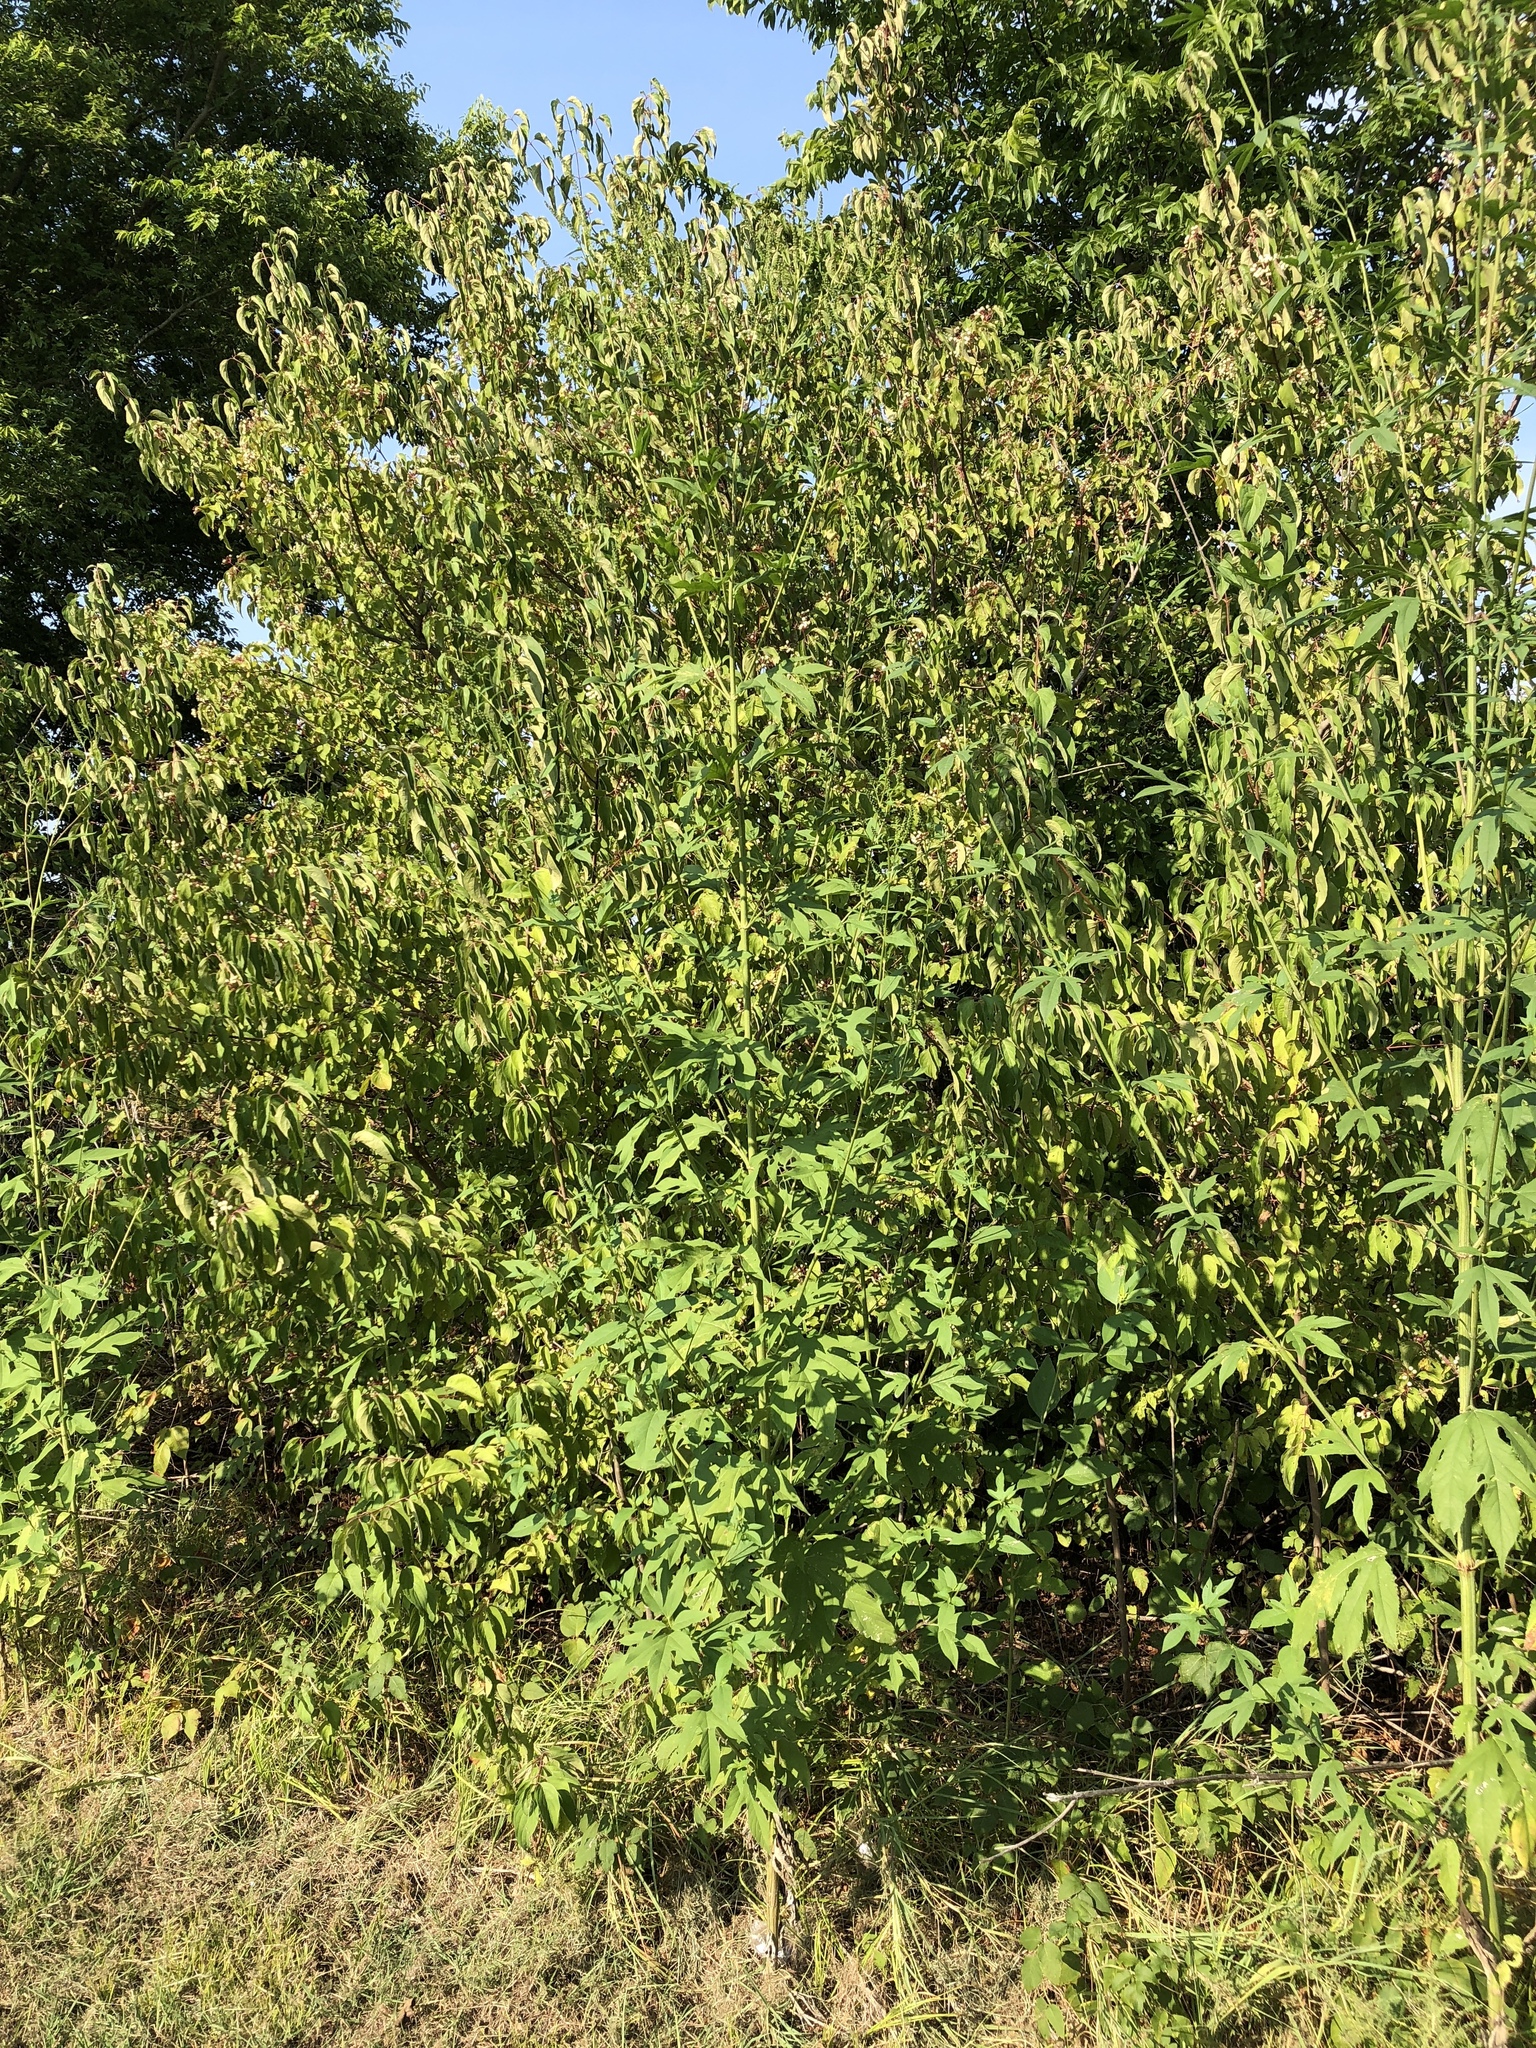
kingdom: Plantae
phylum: Tracheophyta
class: Magnoliopsida
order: Asterales
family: Asteraceae
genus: Ambrosia
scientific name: Ambrosia trifida
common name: Giant ragweed
